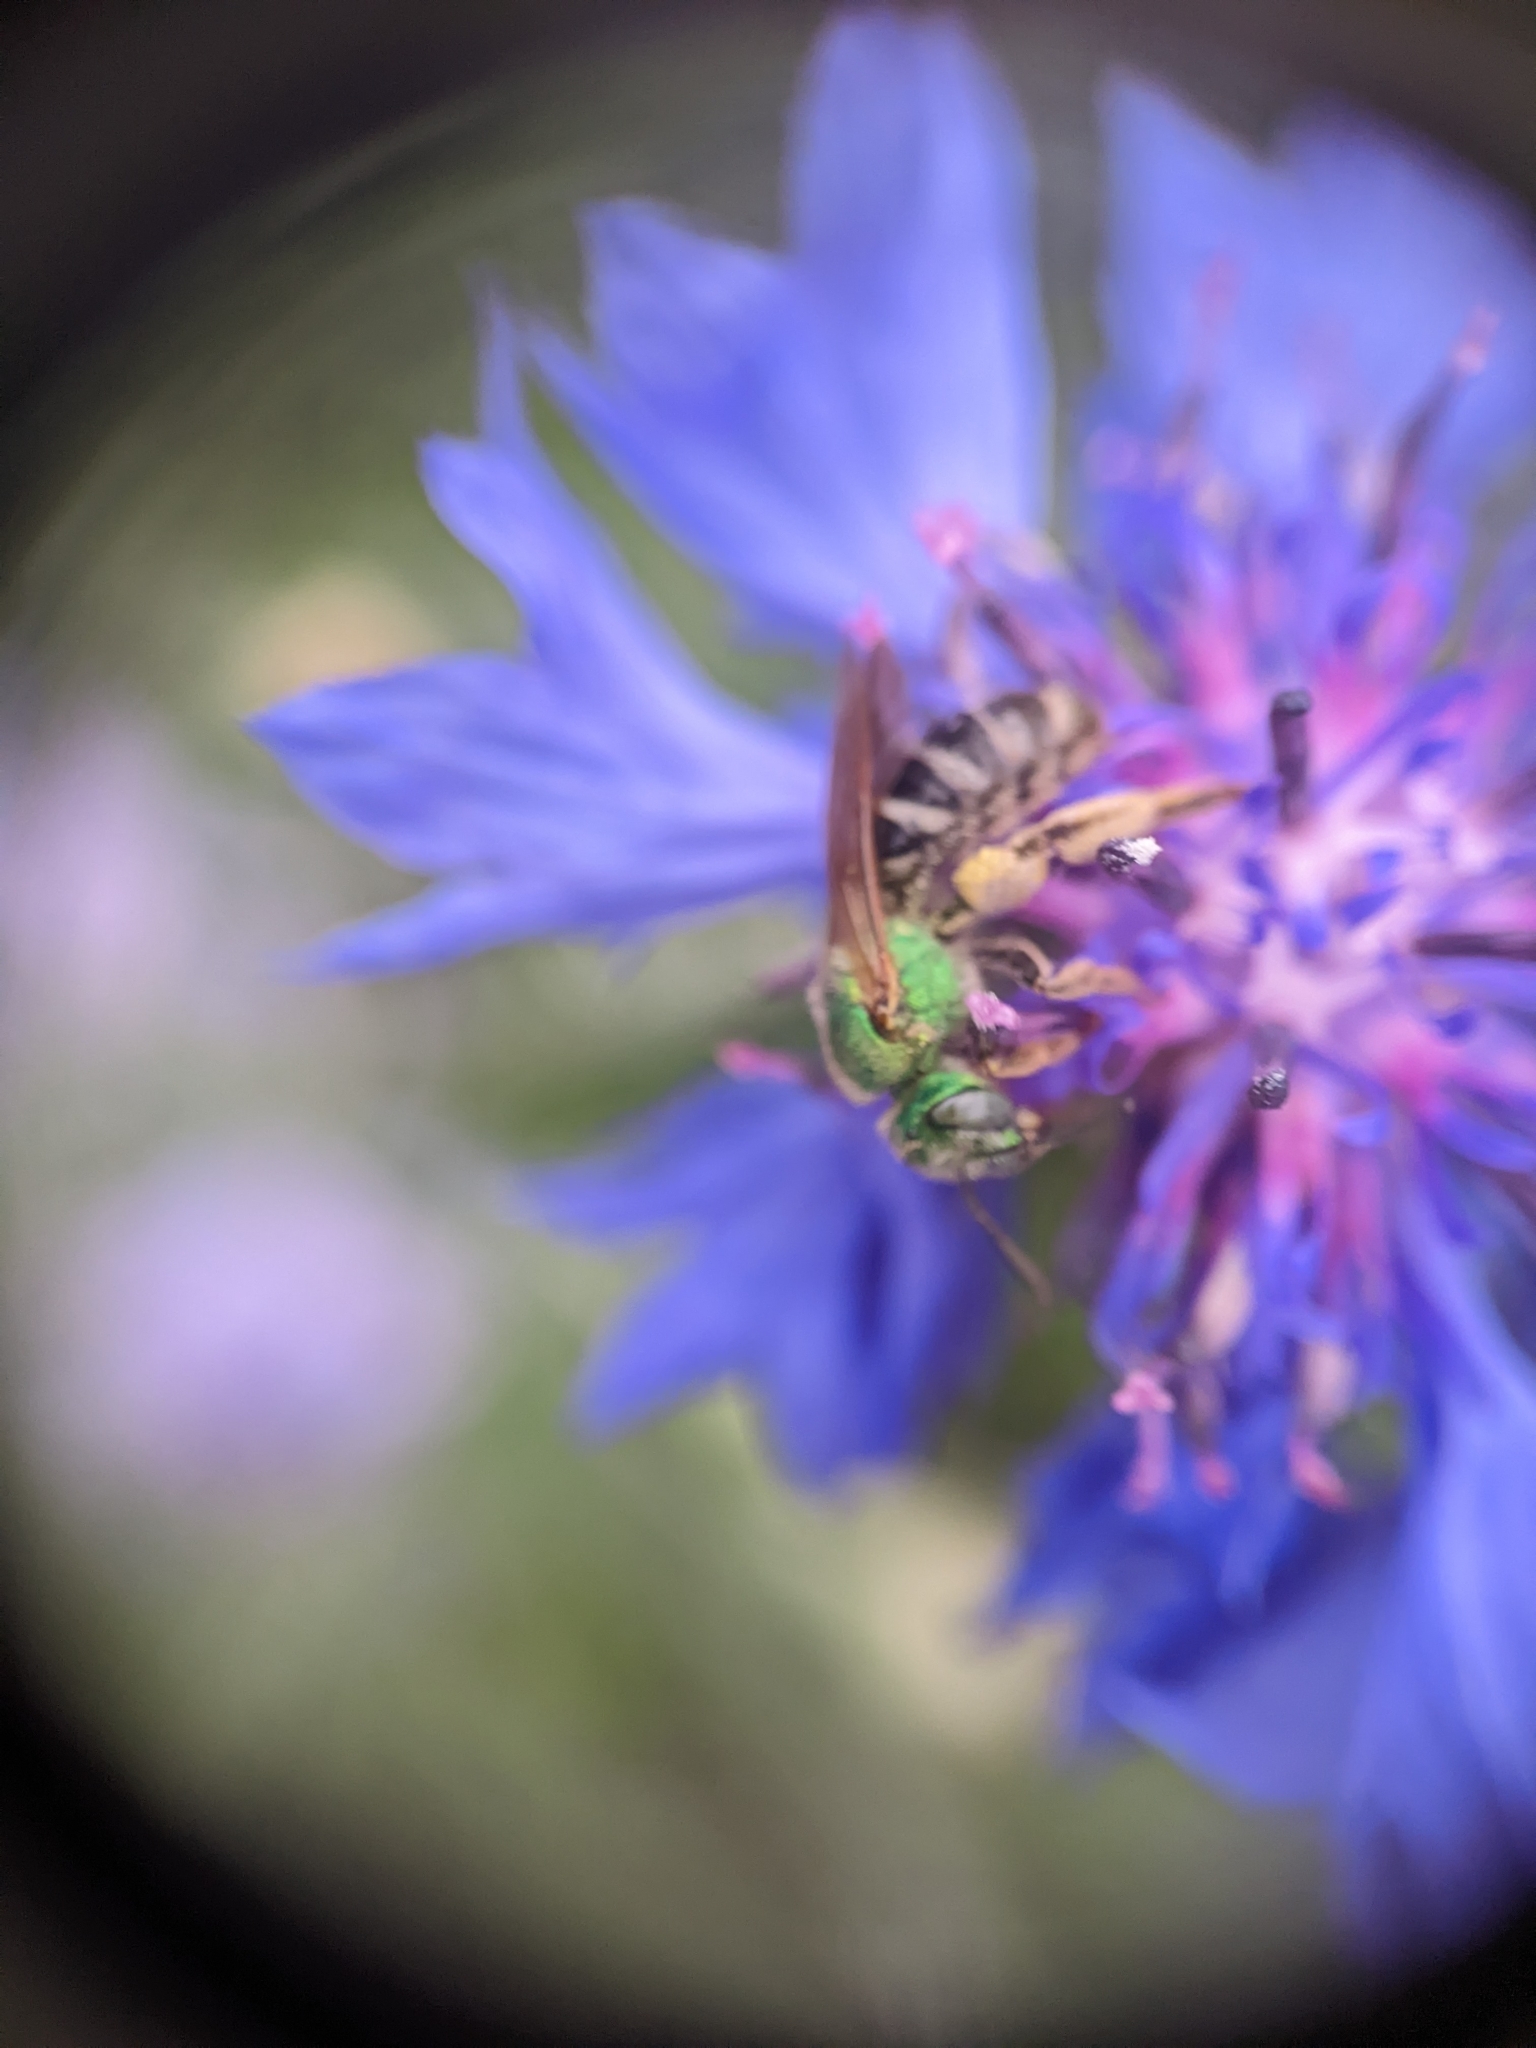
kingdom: Animalia
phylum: Arthropoda
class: Insecta
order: Hymenoptera
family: Halictidae
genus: Agapostemon
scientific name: Agapostemon virescens
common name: Bicolored striped sweat bee
